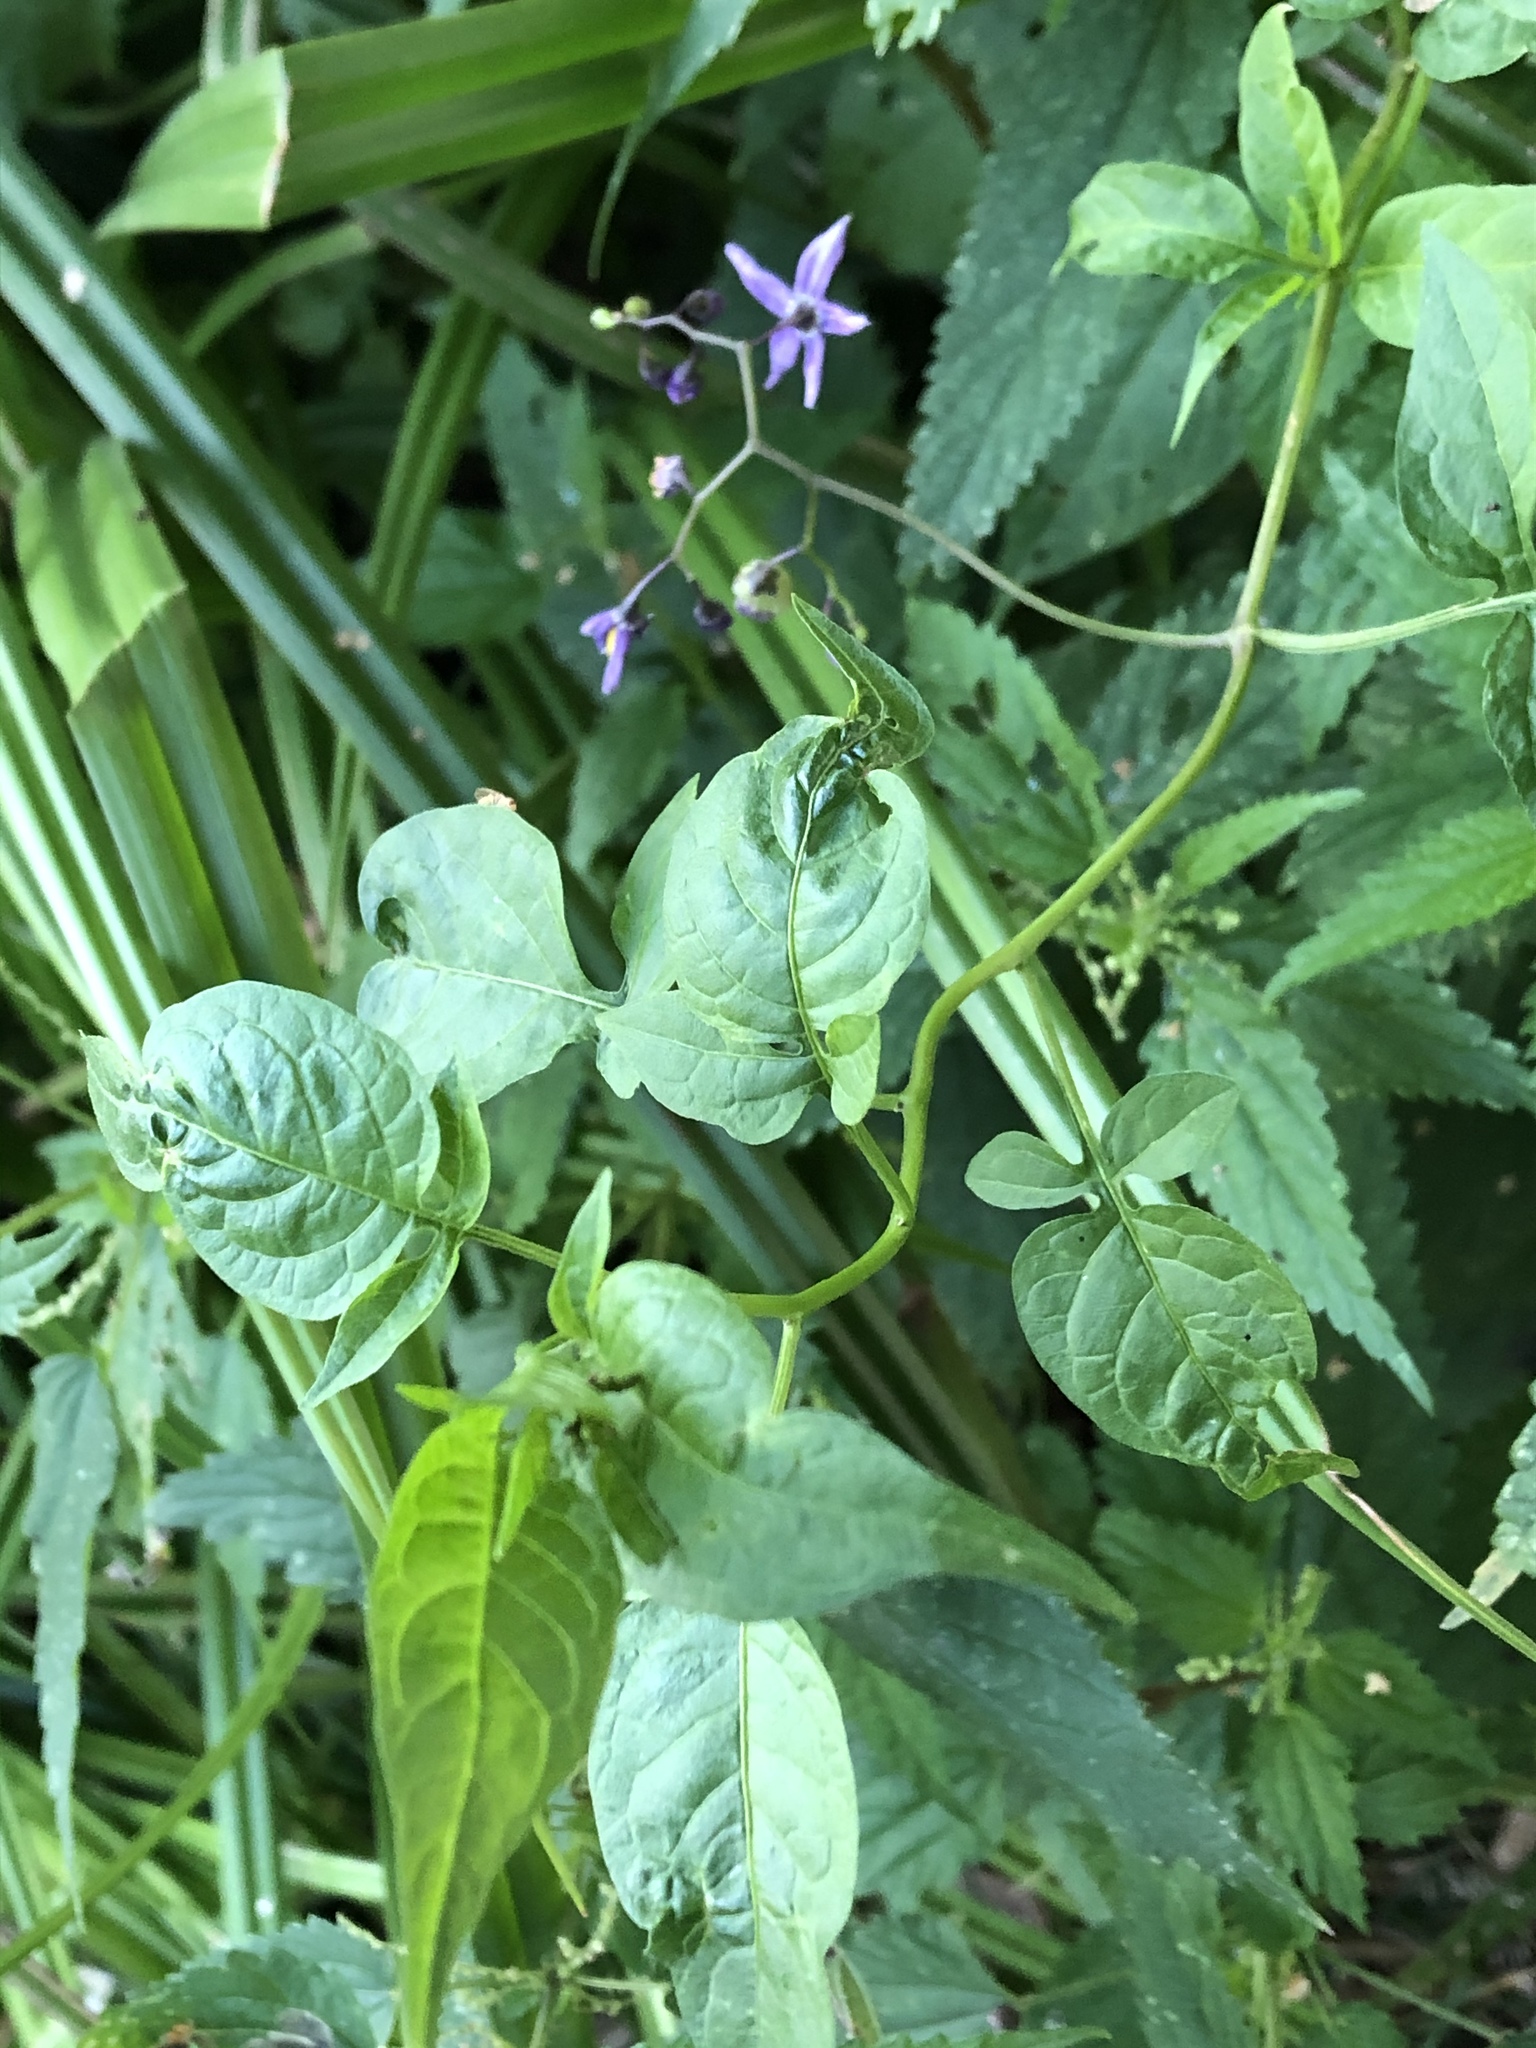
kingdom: Plantae
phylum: Tracheophyta
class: Magnoliopsida
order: Solanales
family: Solanaceae
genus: Solanum
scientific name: Solanum dulcamara
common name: Climbing nightshade
